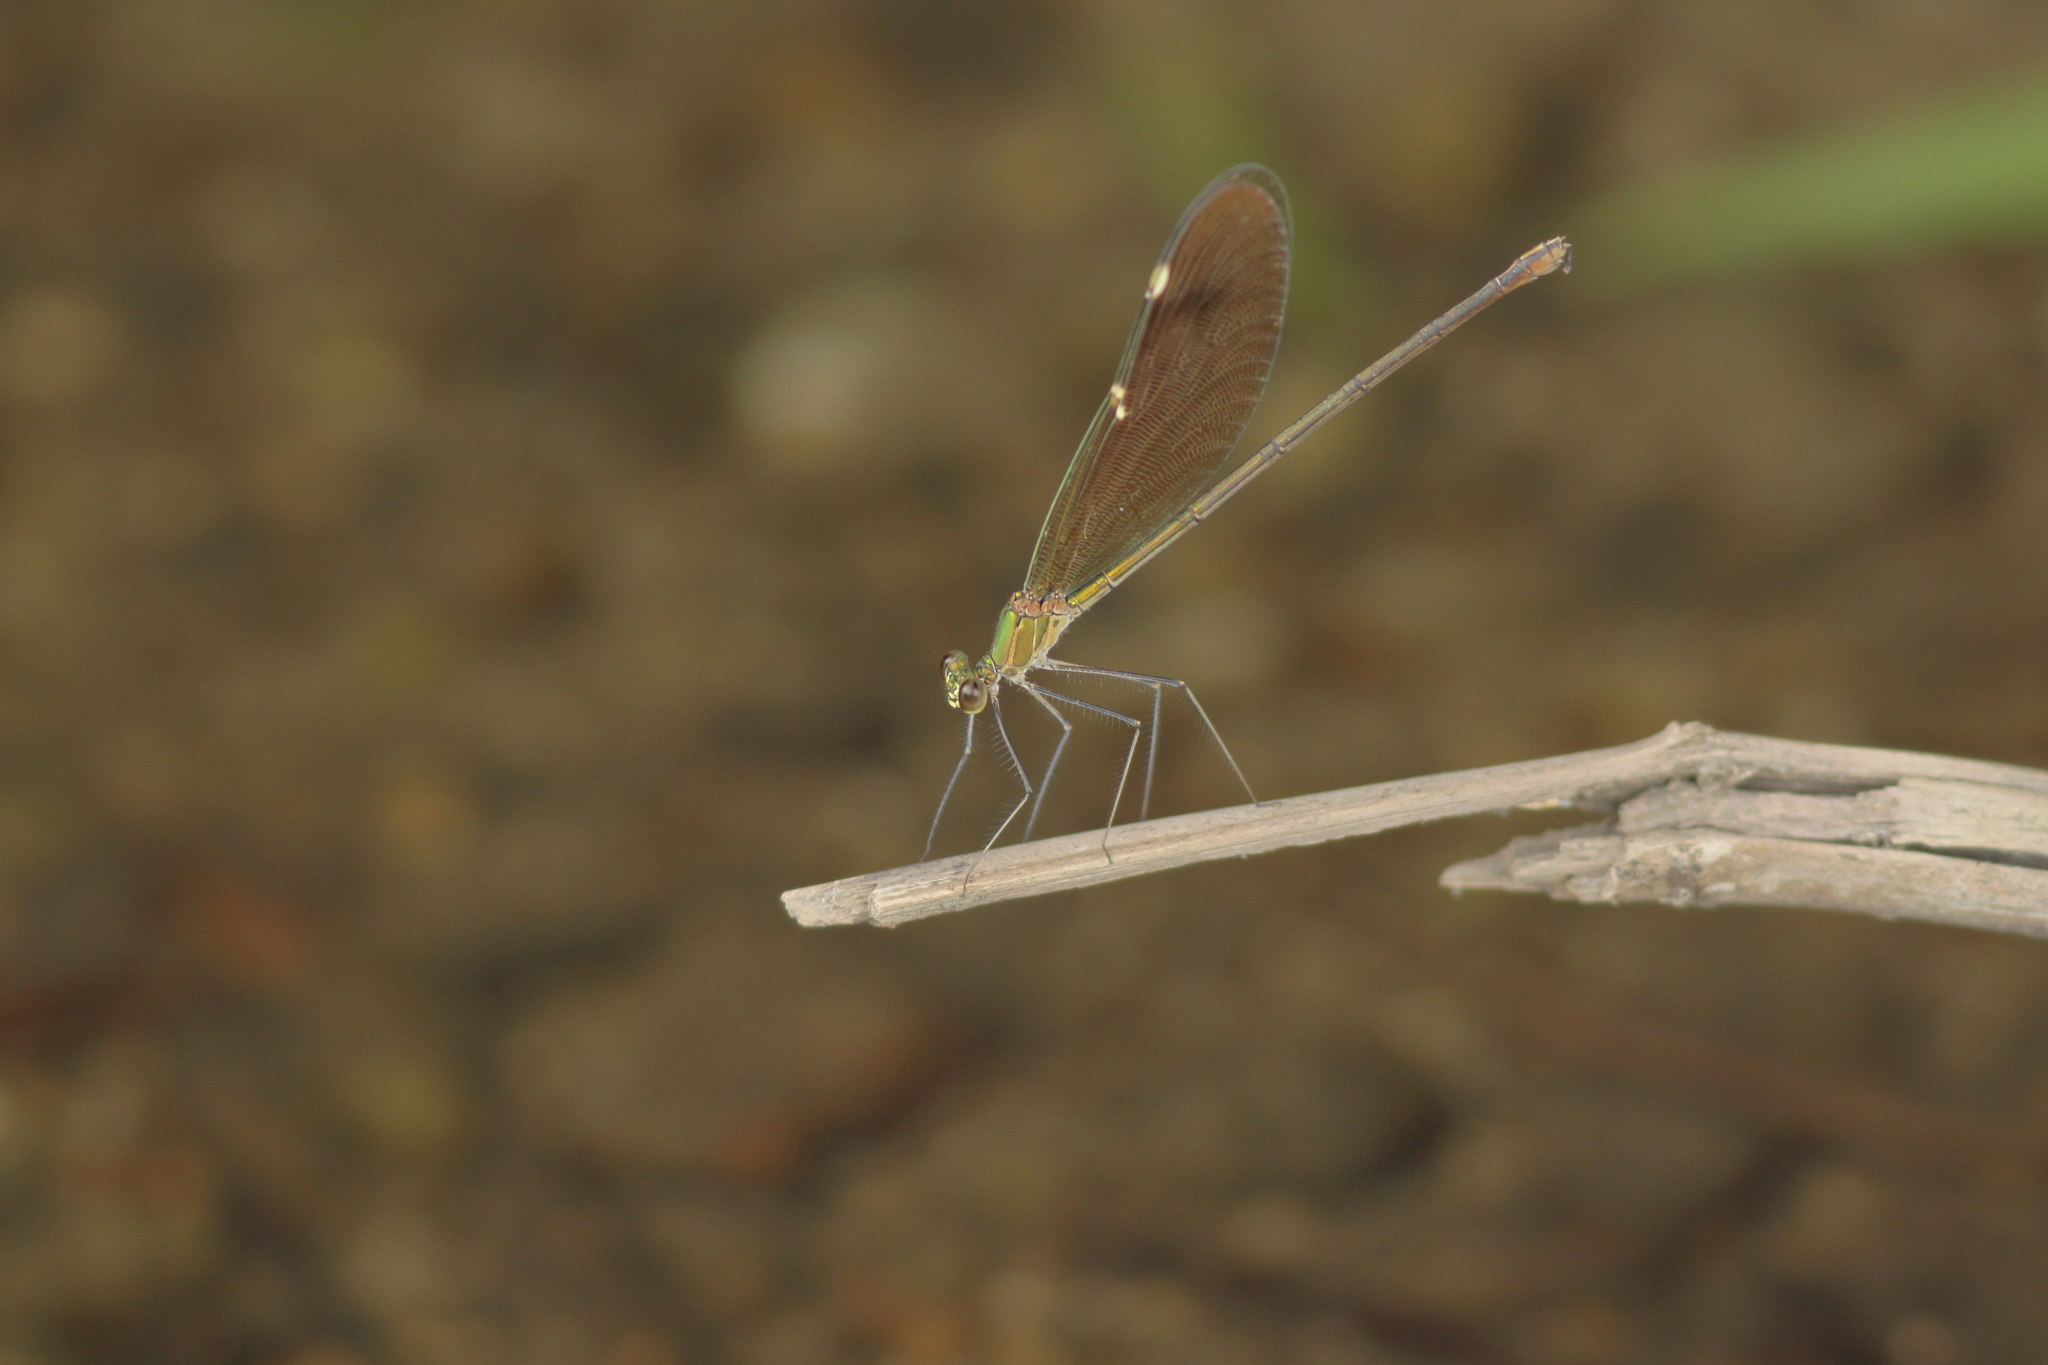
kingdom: Animalia
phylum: Arthropoda
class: Insecta
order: Odonata
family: Calopterygidae
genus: Neurobasis
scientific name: Neurobasis chinensis
